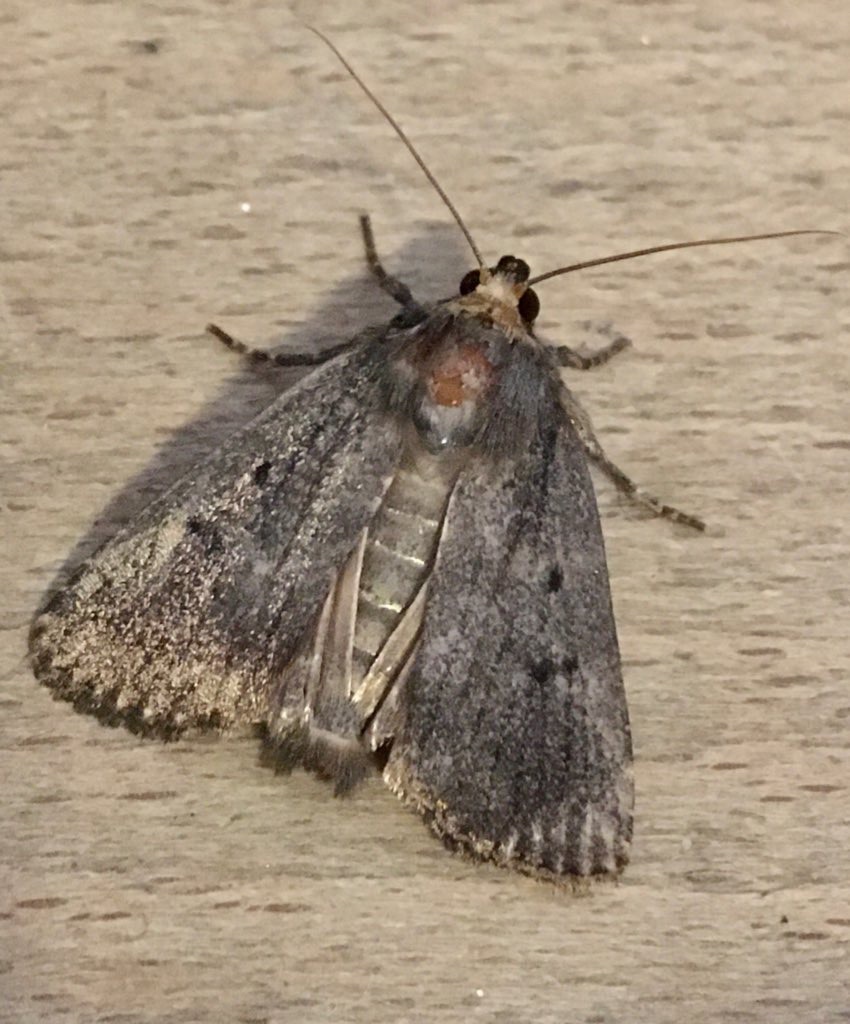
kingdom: Animalia
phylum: Arthropoda
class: Insecta
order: Lepidoptera
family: Noctuidae
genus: Amphipyra
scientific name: Amphipyra tragopoginis
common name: Mouse moth
